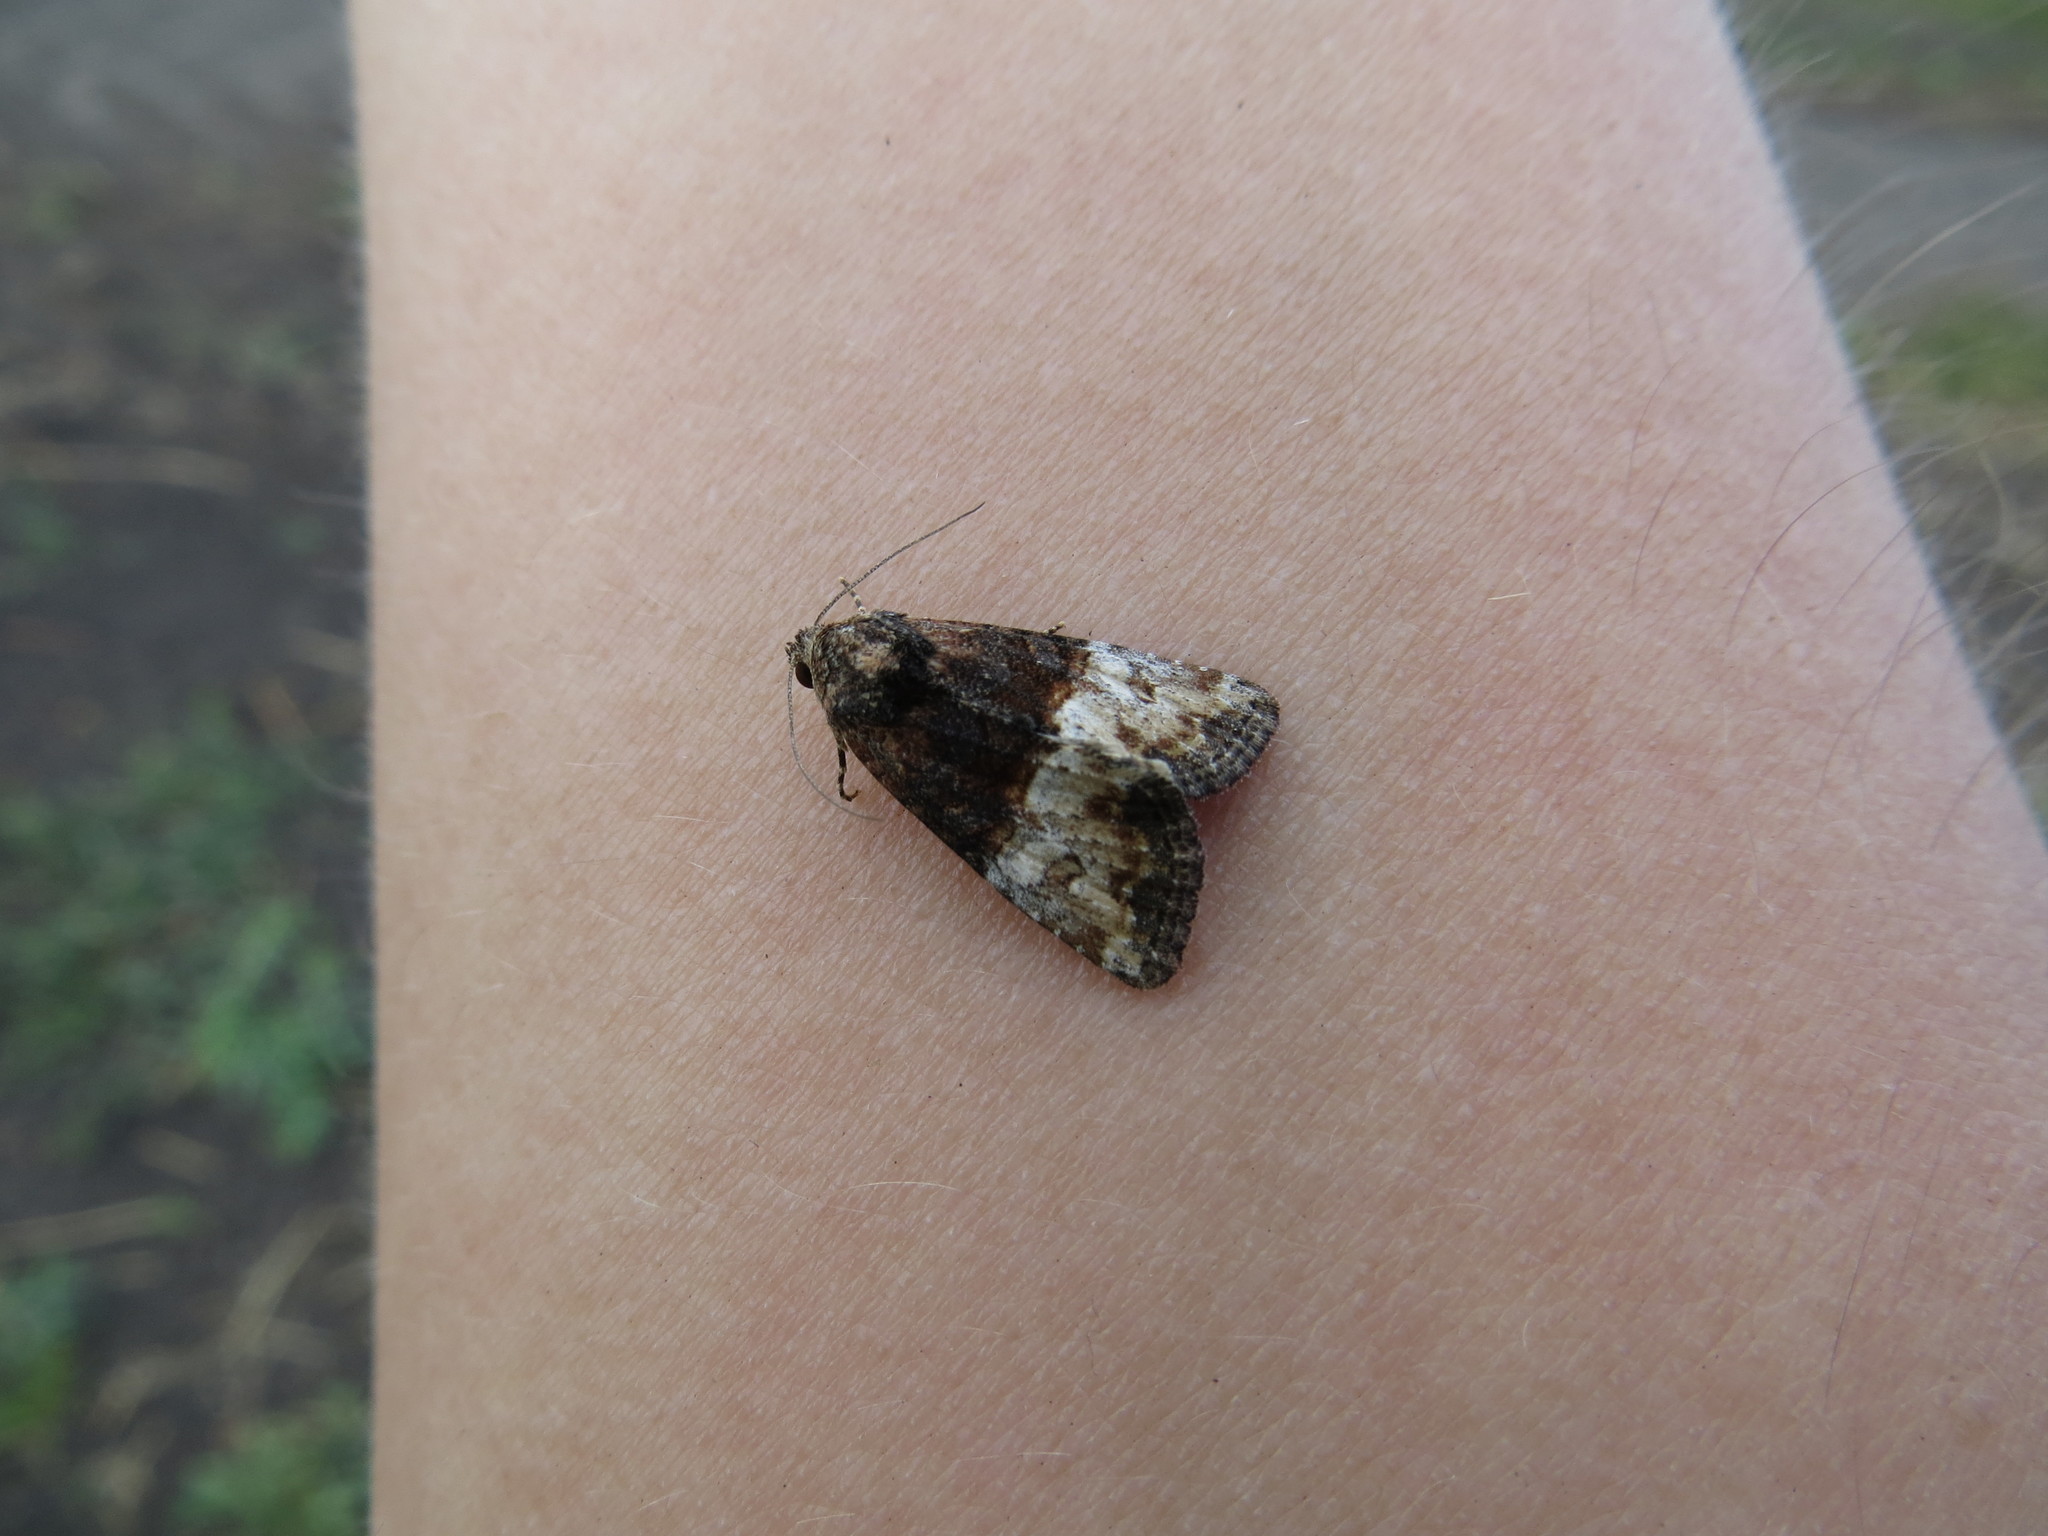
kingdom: Animalia
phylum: Arthropoda
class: Insecta
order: Lepidoptera
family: Noctuidae
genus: Mesoligia
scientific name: Mesoligia furuncula
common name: Cloaked minor
